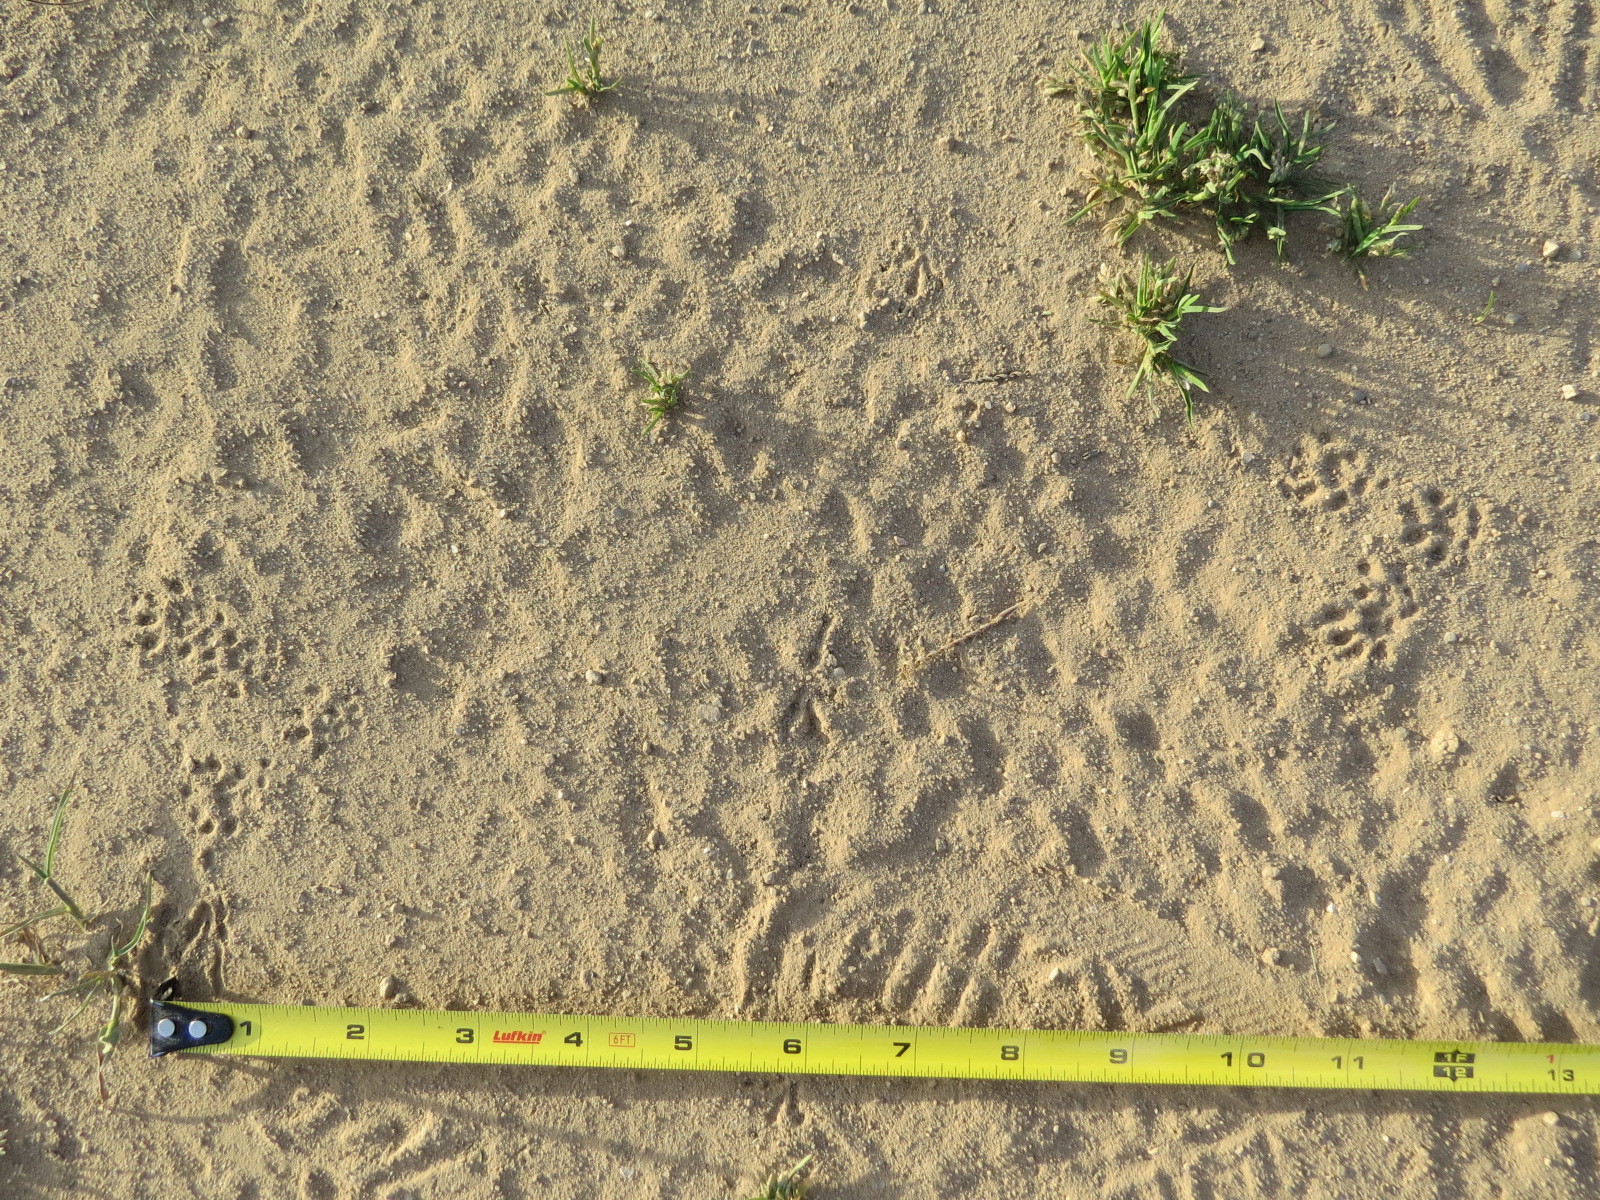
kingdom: Animalia
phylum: Chordata
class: Mammalia
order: Rodentia
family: Cricetidae
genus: Neotoma
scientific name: Neotoma fuscipes
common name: Dusky-footed woodrat
